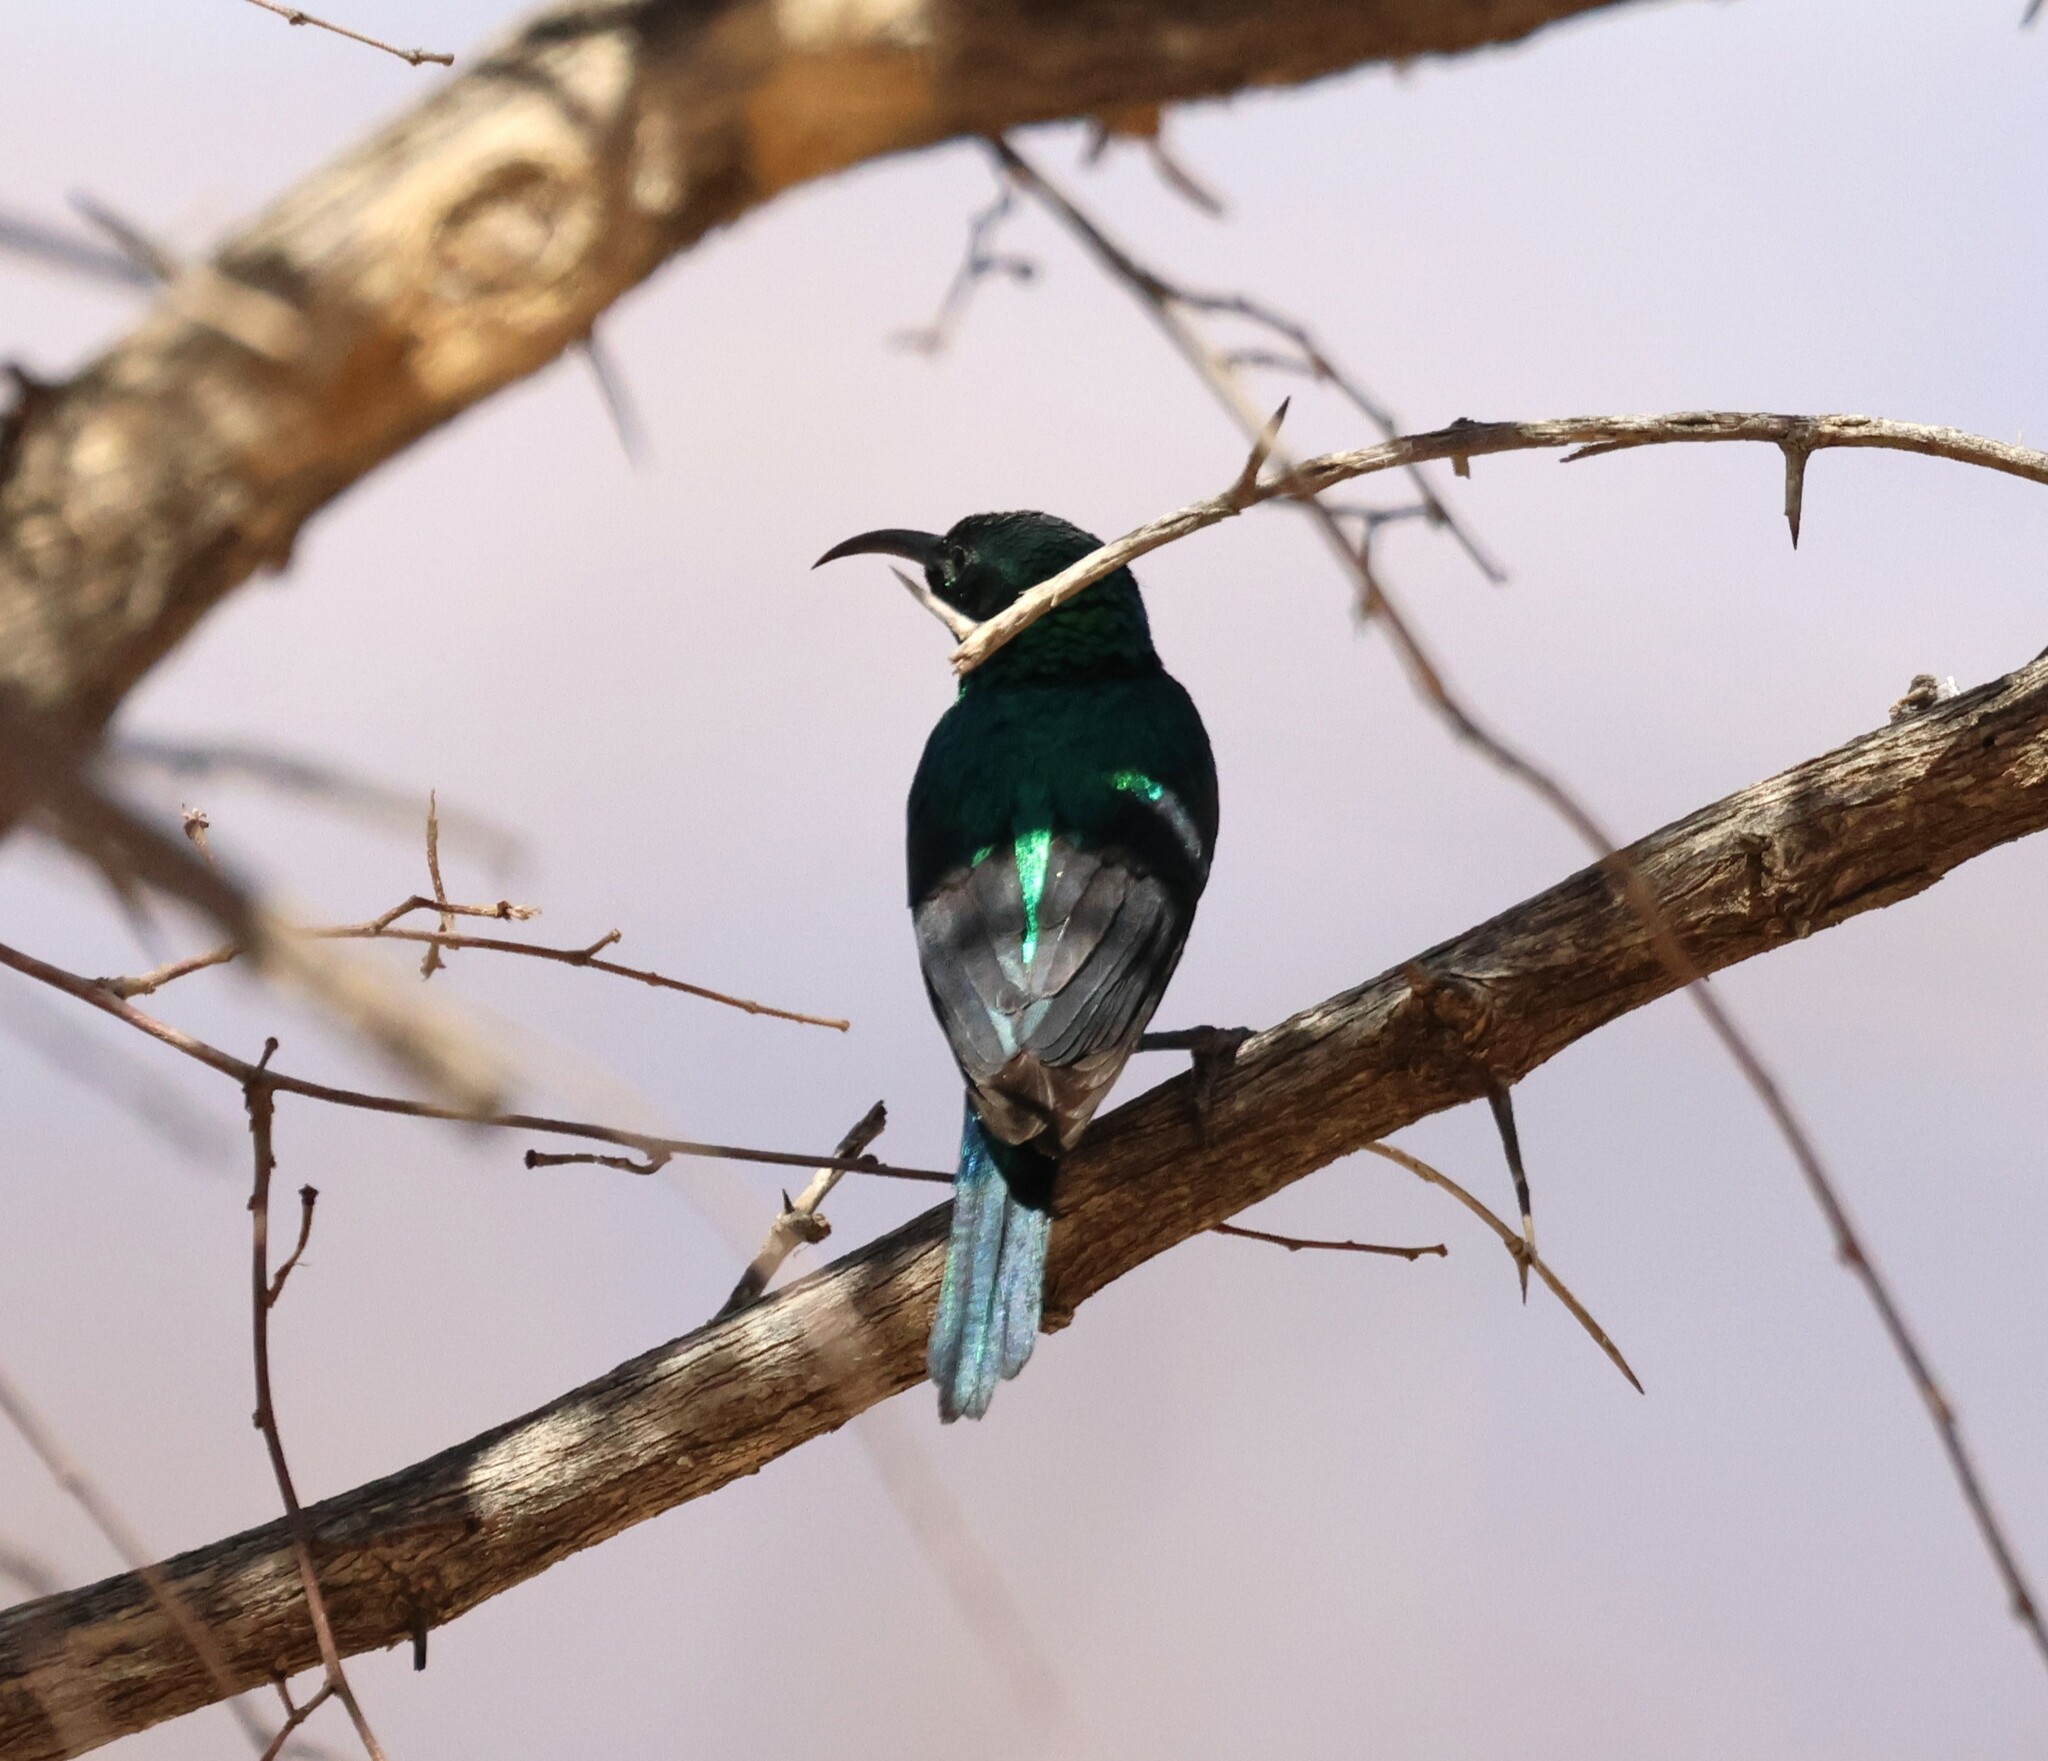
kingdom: Animalia
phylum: Chordata
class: Aves
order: Passeriformes
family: Nectariniidae
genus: Cinnyris
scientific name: Cinnyris mariquensis
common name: Marico sunbird
